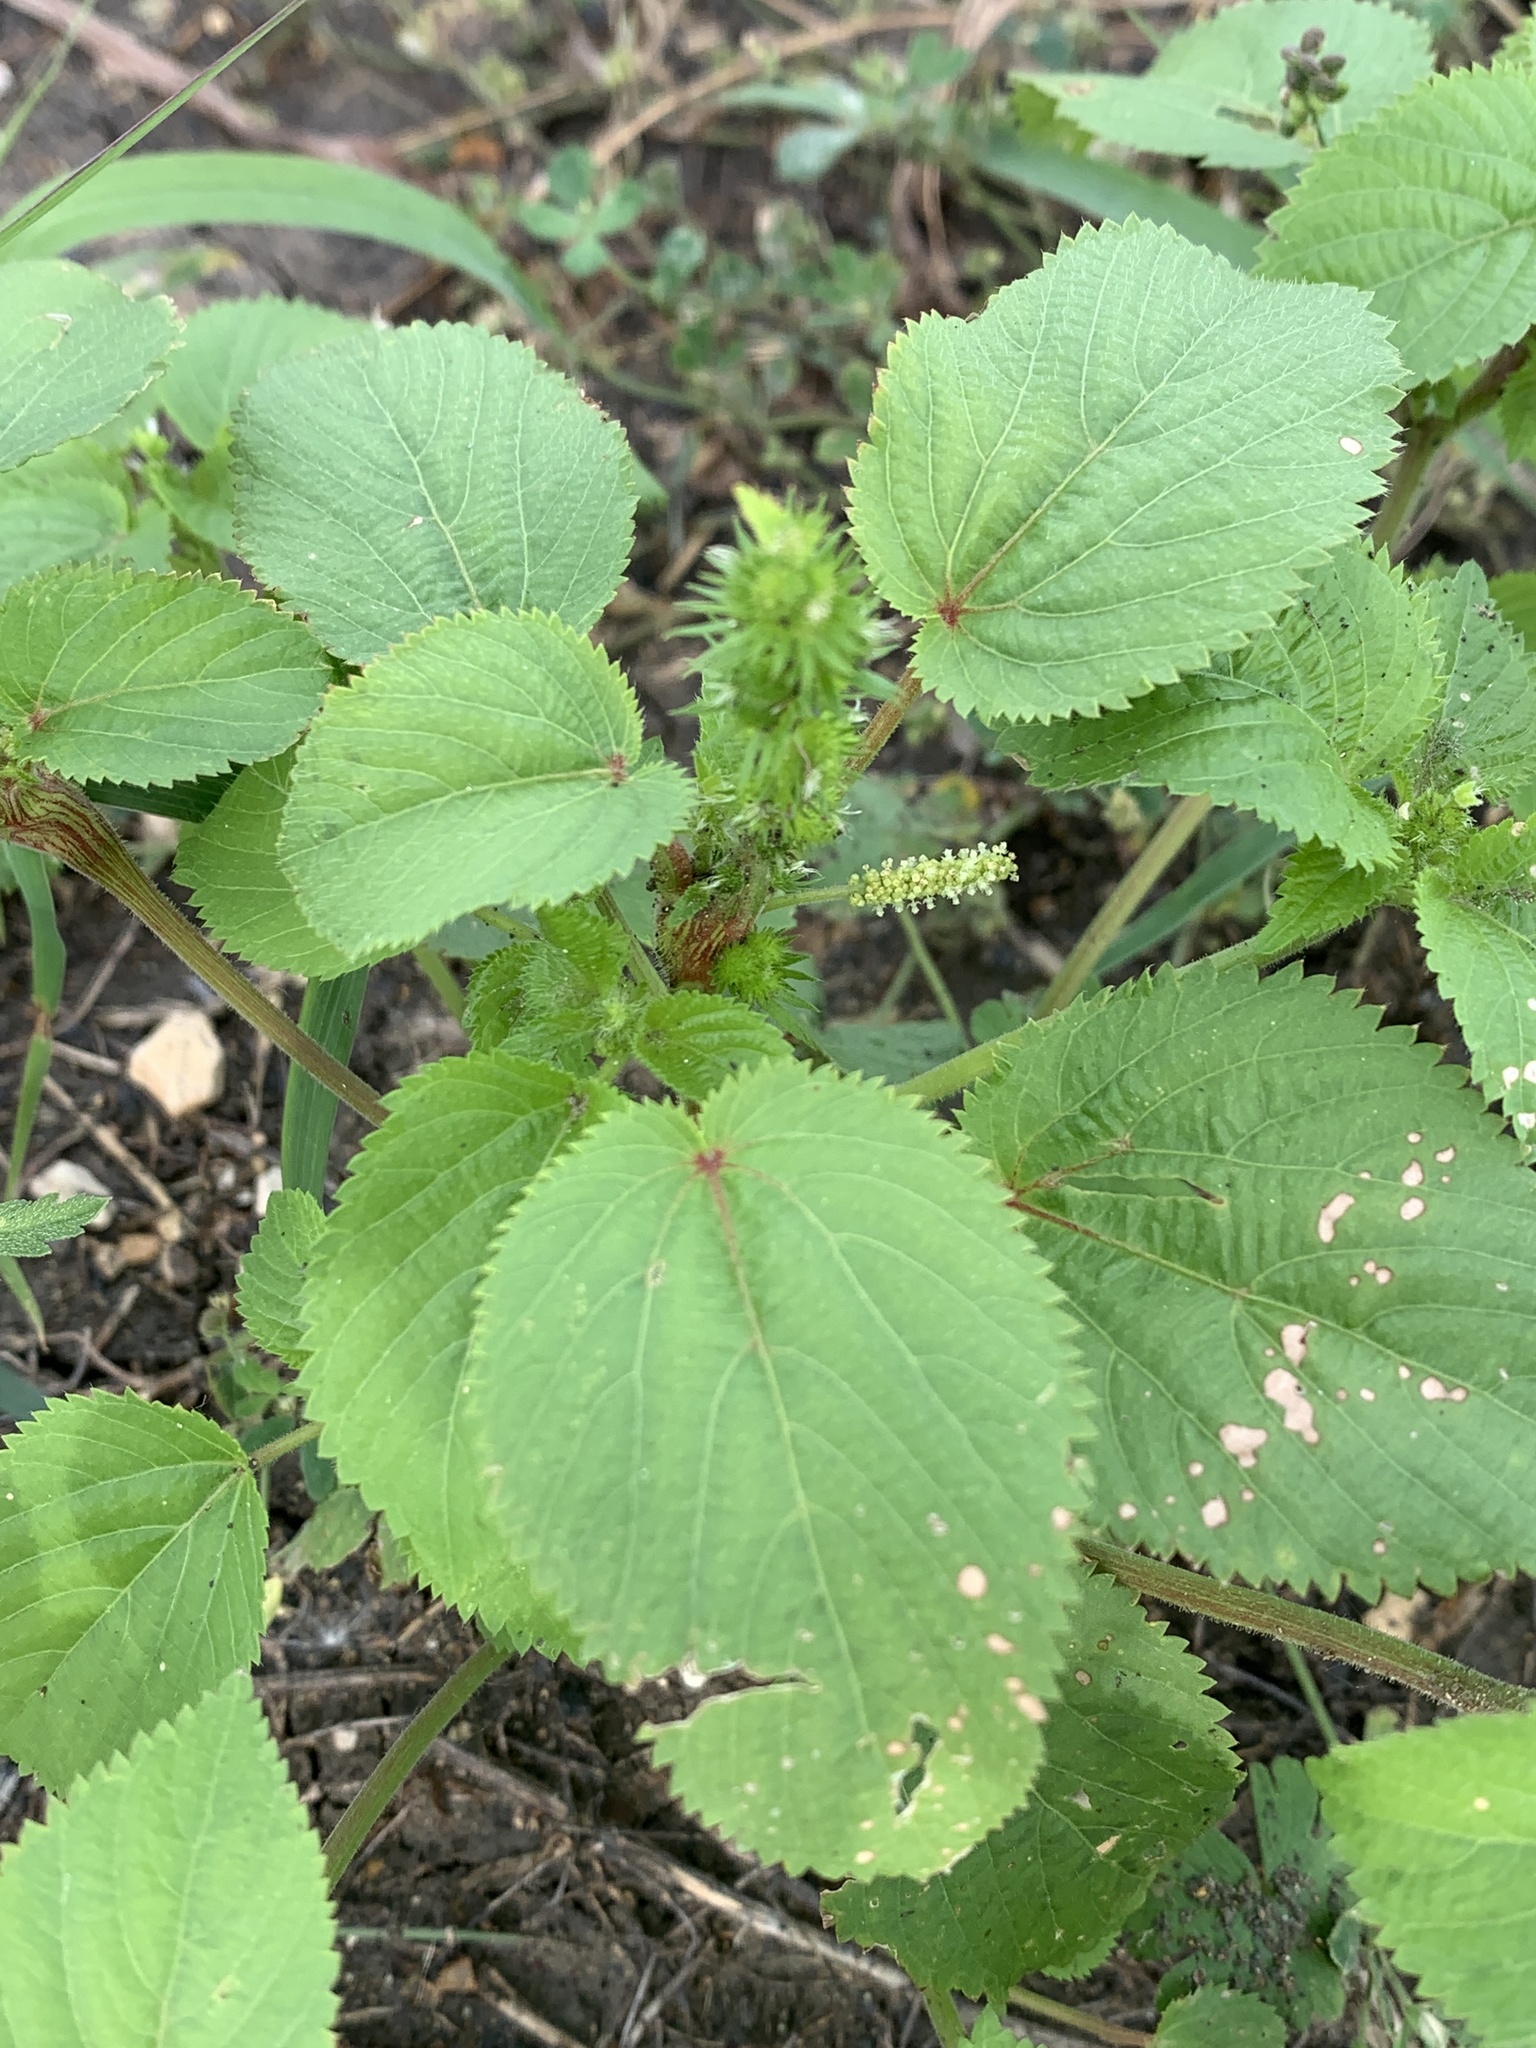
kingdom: Plantae
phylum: Tracheophyta
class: Magnoliopsida
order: Malpighiales
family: Euphorbiaceae
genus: Acalypha
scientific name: Acalypha ostryifolia
